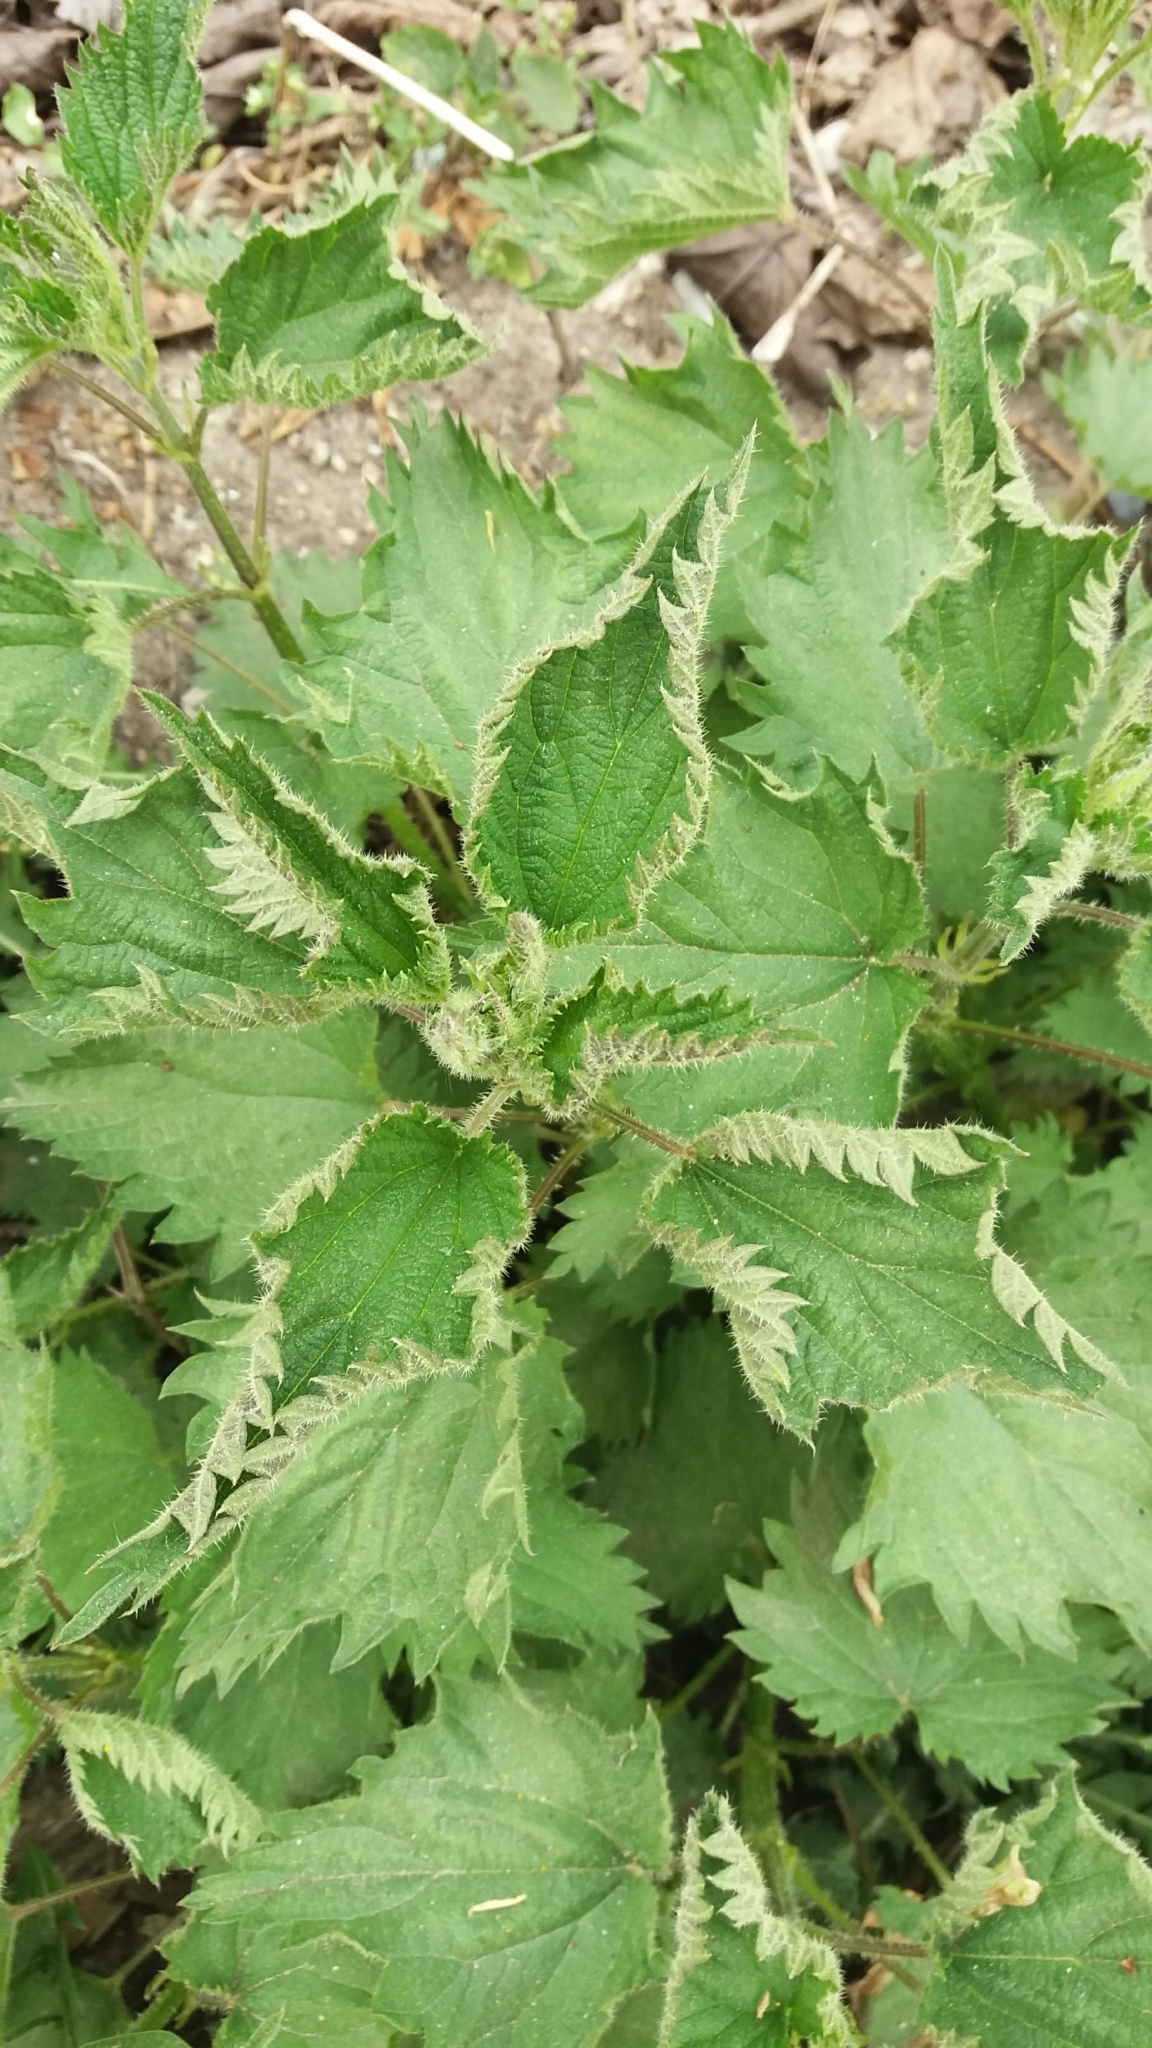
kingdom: Plantae
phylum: Tracheophyta
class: Magnoliopsida
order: Rosales
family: Urticaceae
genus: Urtica
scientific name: Urtica dioica
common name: Common nettle
